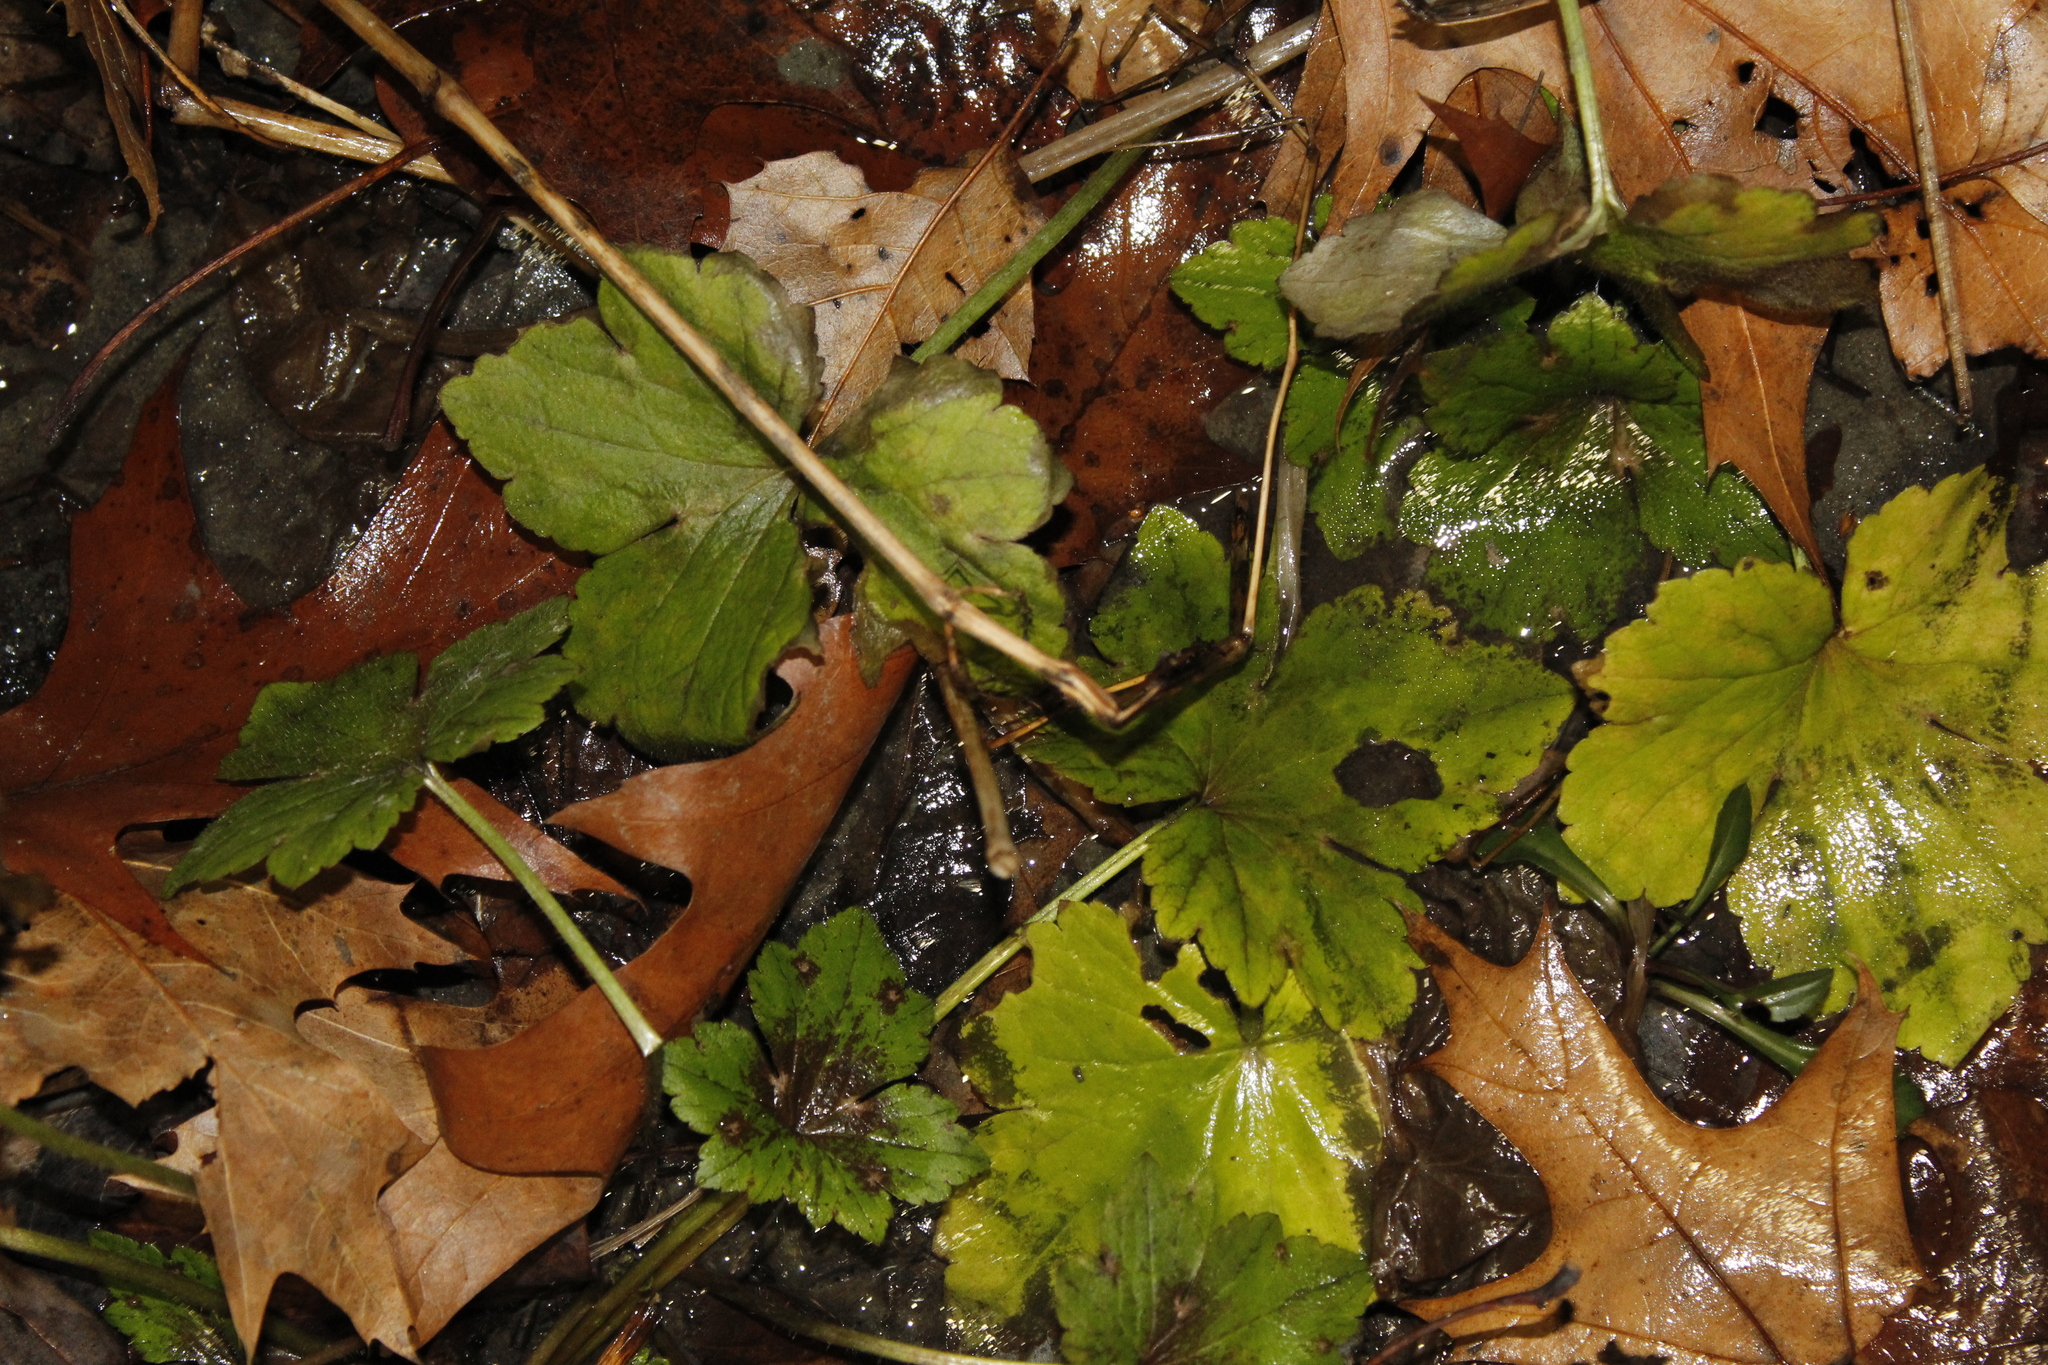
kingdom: Plantae
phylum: Tracheophyta
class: Magnoliopsida
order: Saxifragales
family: Saxifragaceae
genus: Tiarella
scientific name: Tiarella stolonifera
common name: Stoloniferous foamflower
